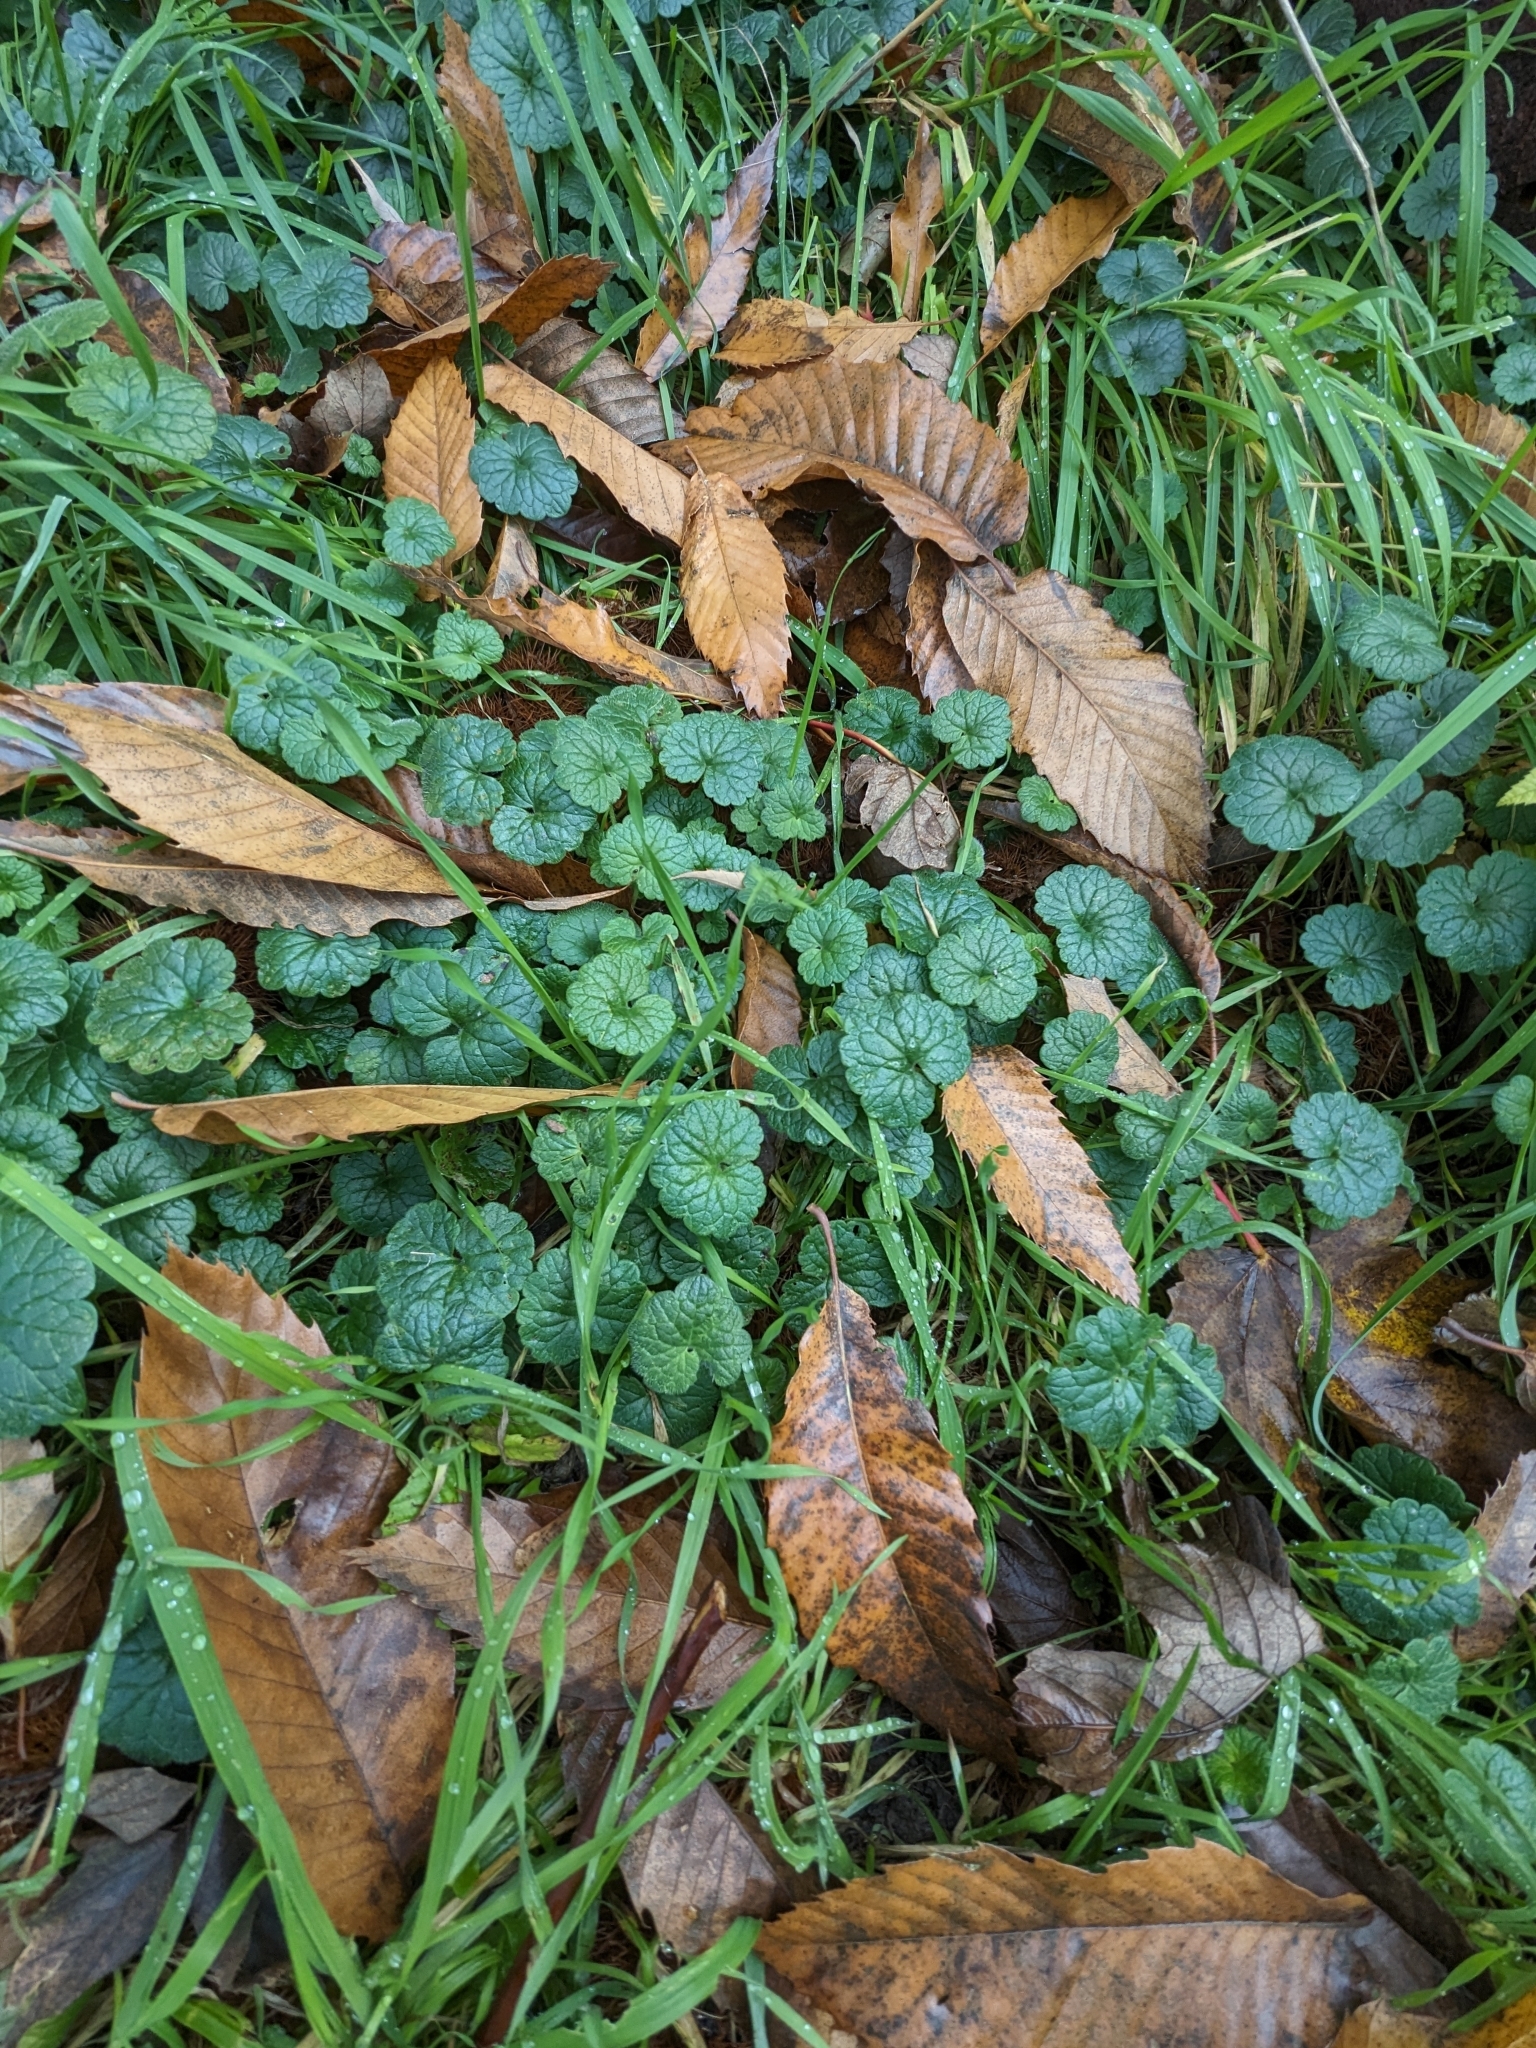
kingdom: Plantae
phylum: Tracheophyta
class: Magnoliopsida
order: Lamiales
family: Lamiaceae
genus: Glechoma
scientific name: Glechoma hederacea
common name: Ground ivy
